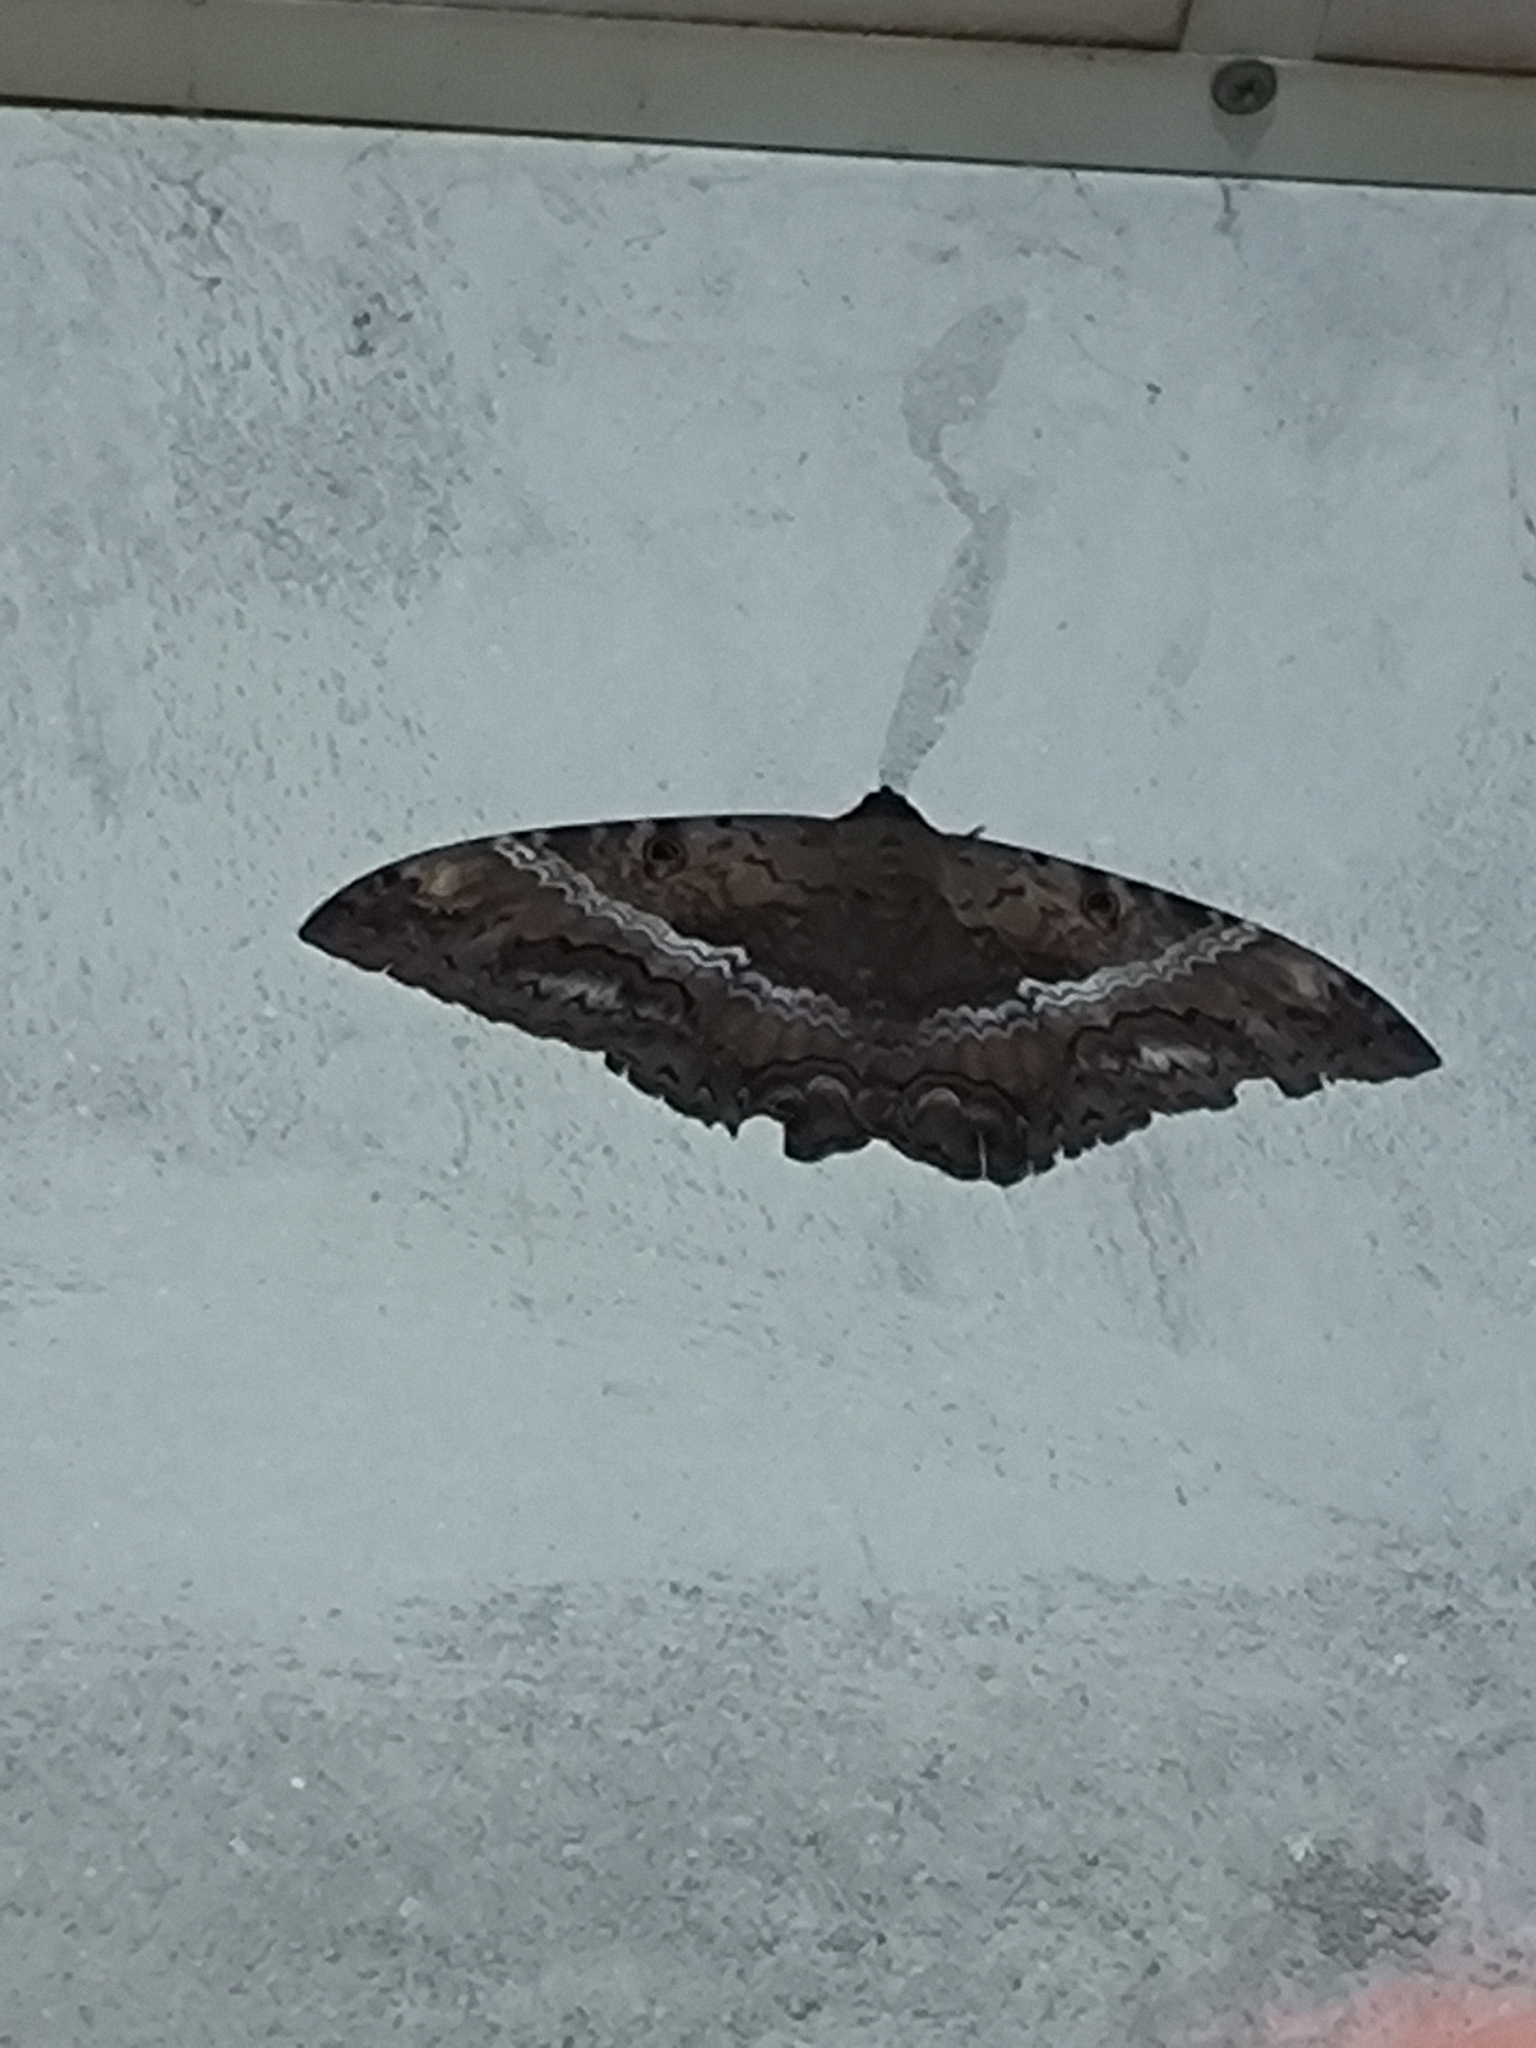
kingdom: Animalia
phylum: Arthropoda
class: Insecta
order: Lepidoptera
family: Erebidae
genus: Ascalapha
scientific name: Ascalapha odorata
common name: Black witch
